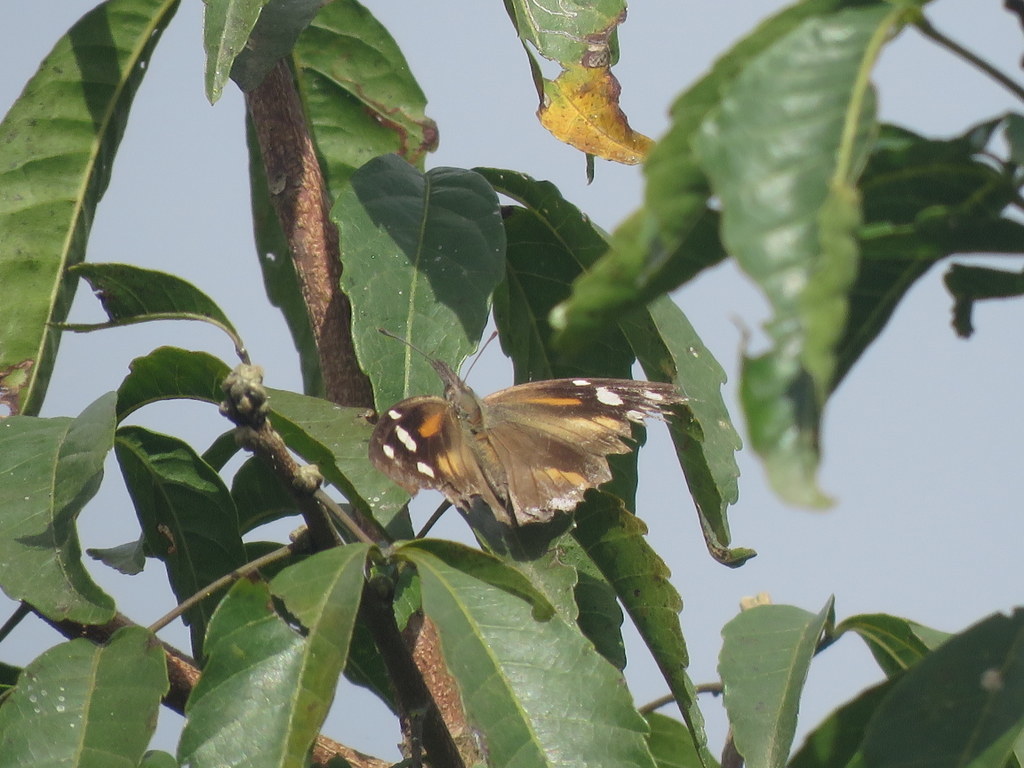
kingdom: Animalia
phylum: Arthropoda
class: Insecta
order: Lepidoptera
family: Nymphalidae
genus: Libytheana
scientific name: Libytheana carinenta
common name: American snout
